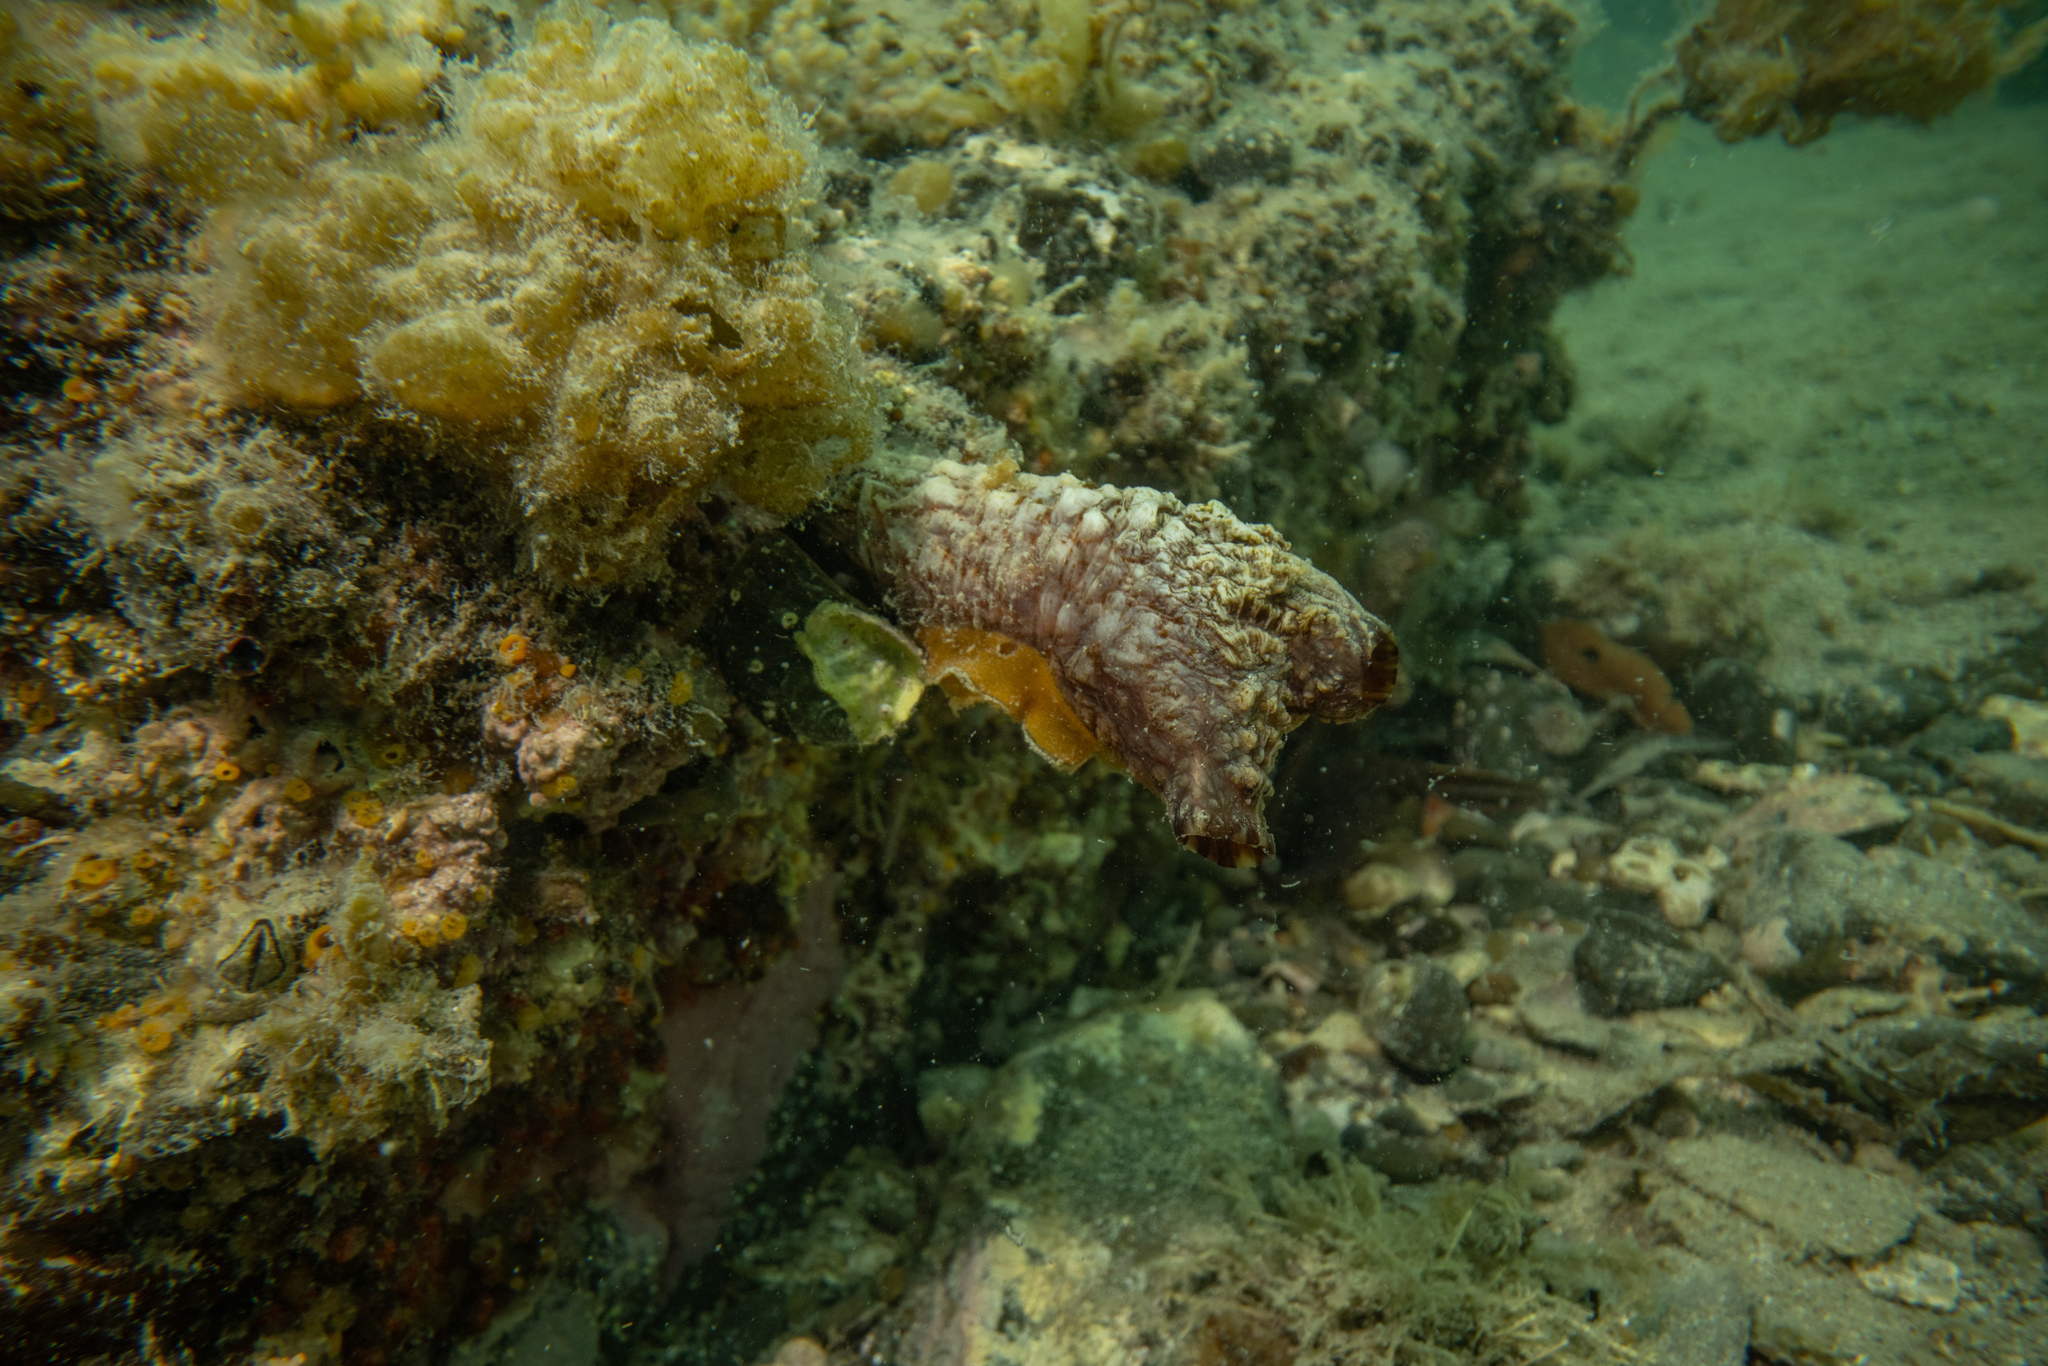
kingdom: Animalia
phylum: Chordata
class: Ascidiacea
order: Stolidobranchia
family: Styelidae
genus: Styela
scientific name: Styela clava
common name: Leathery sea squirt
